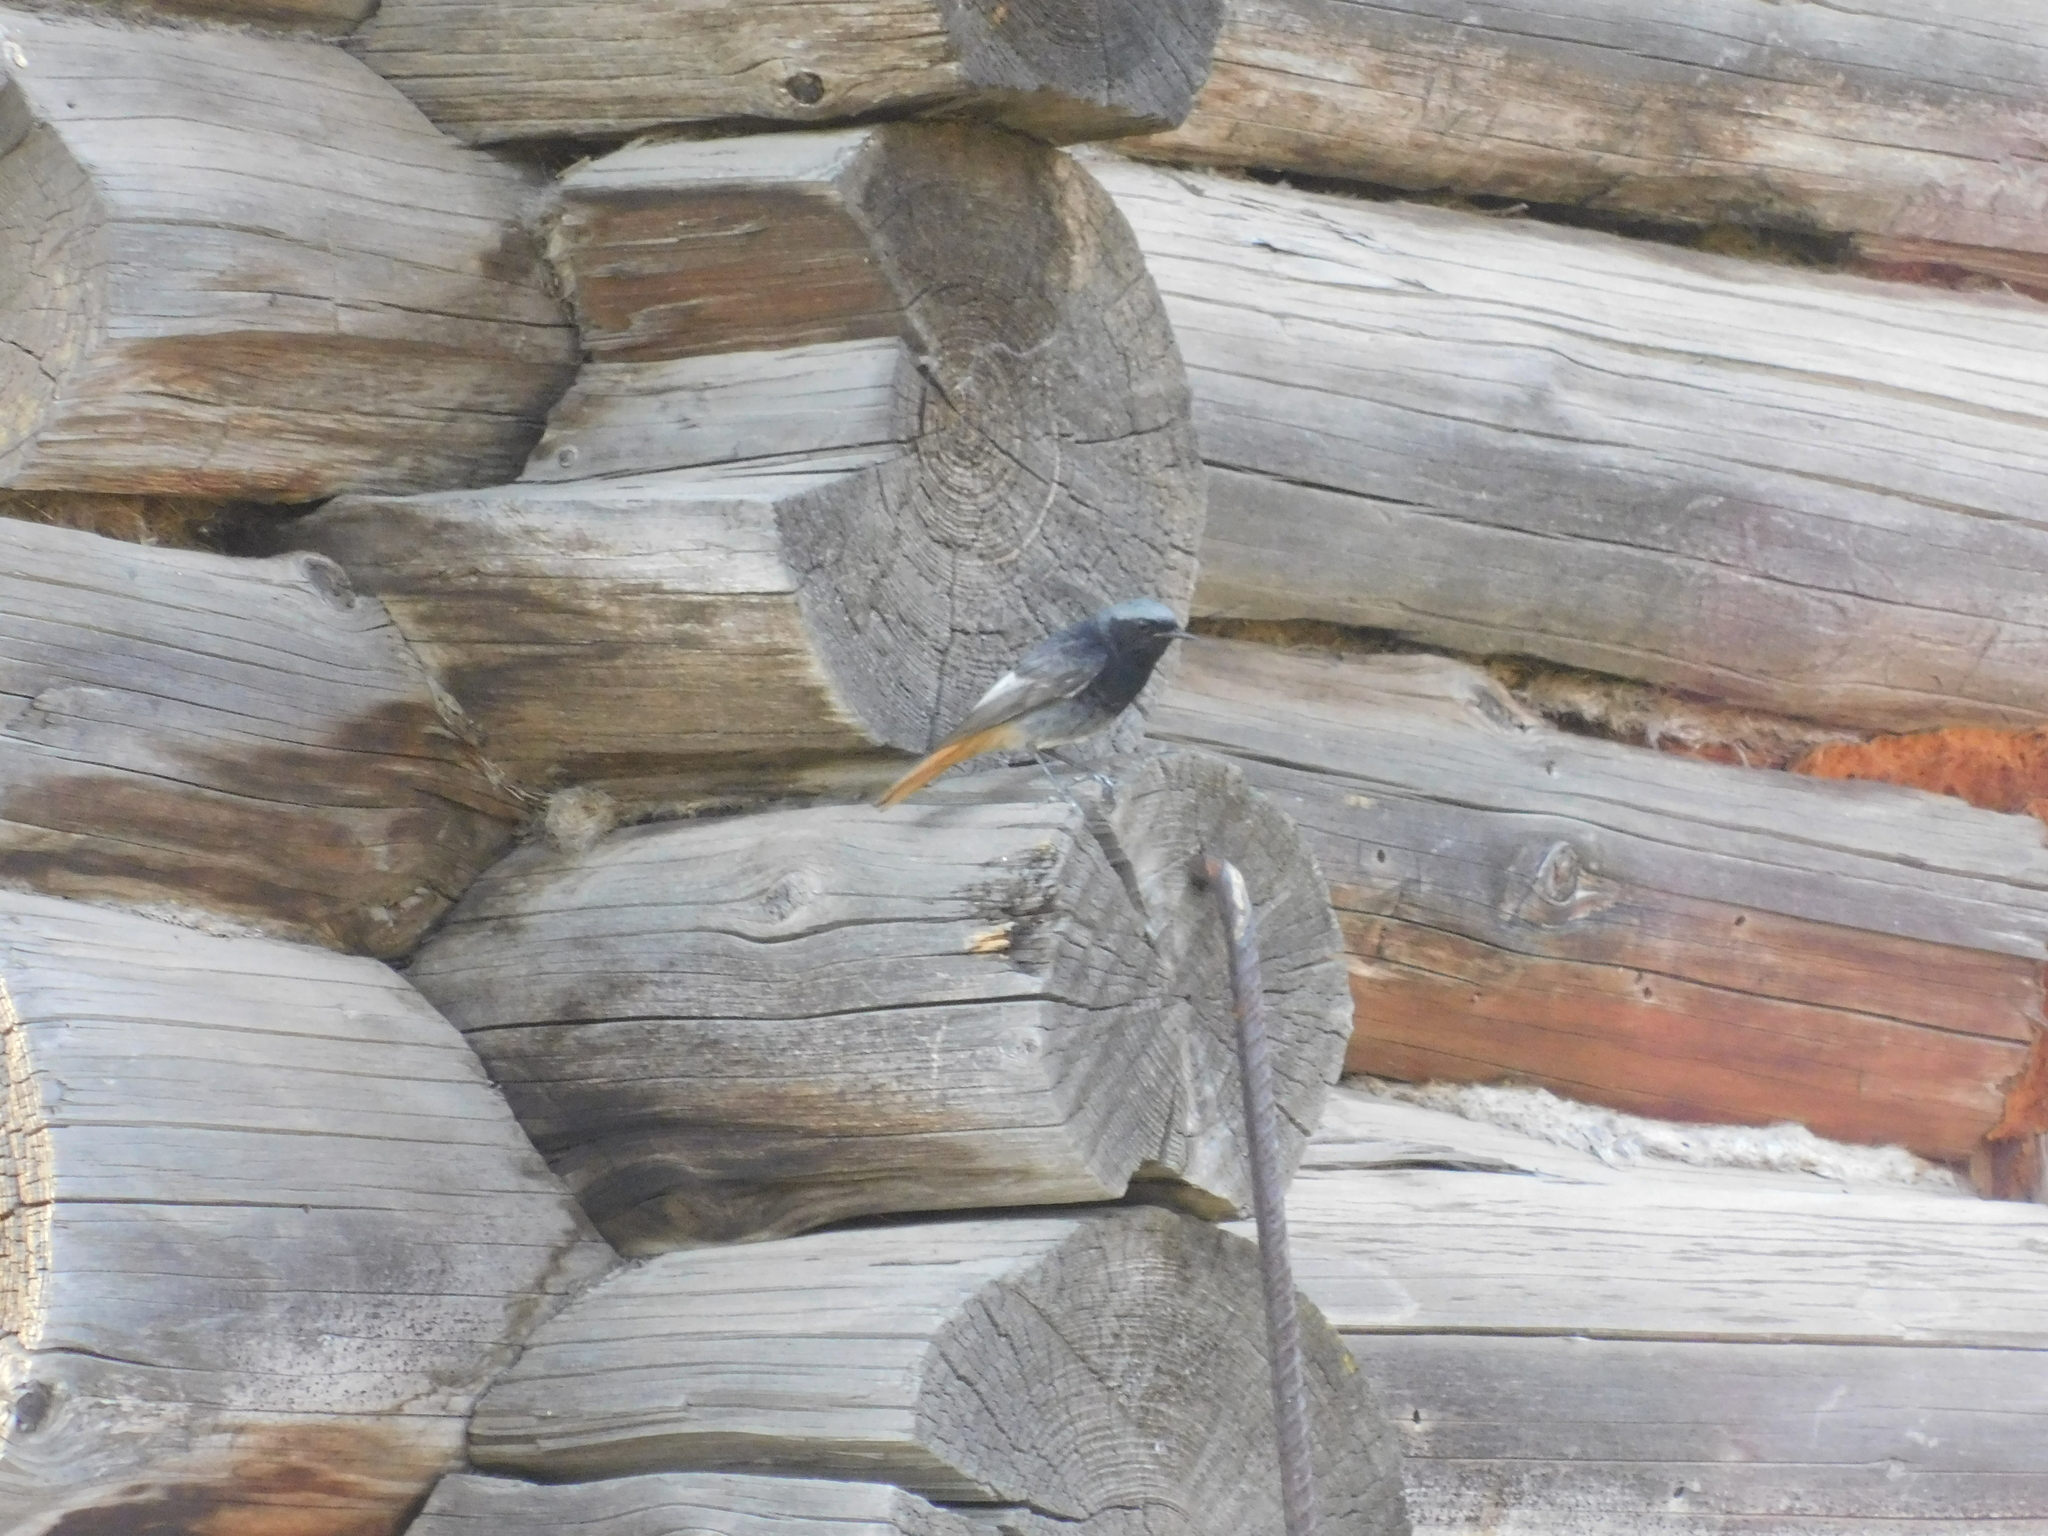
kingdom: Animalia
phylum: Chordata
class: Aves
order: Passeriformes
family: Muscicapidae
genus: Phoenicurus
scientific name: Phoenicurus ochruros
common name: Black redstart
